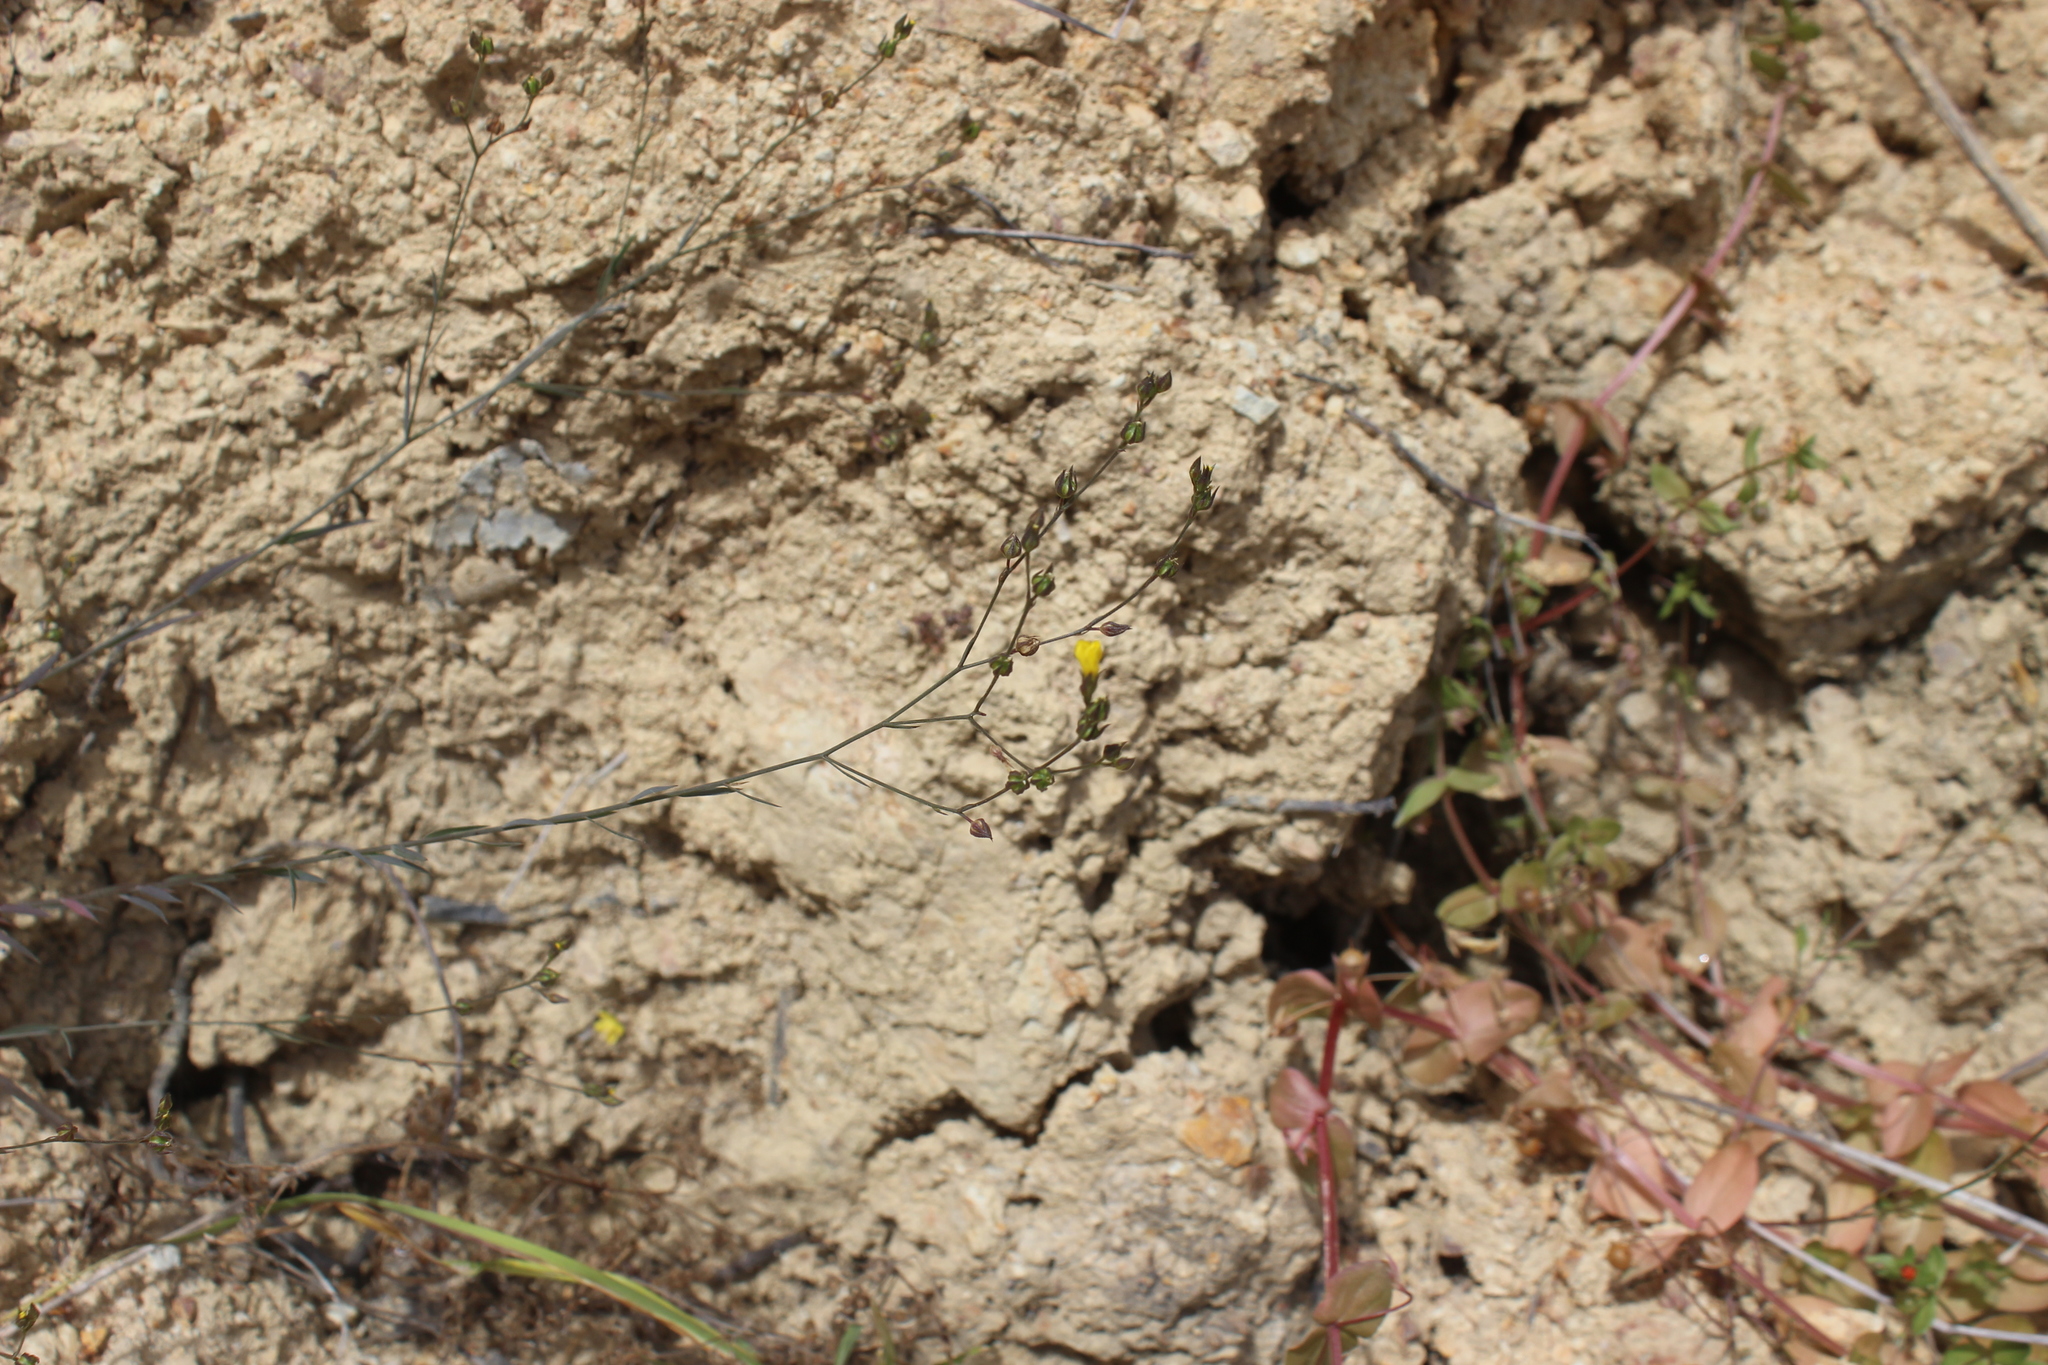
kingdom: Plantae
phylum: Tracheophyta
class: Magnoliopsida
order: Malpighiales
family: Linaceae
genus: Linum
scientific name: Linum trigynum
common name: French flax
